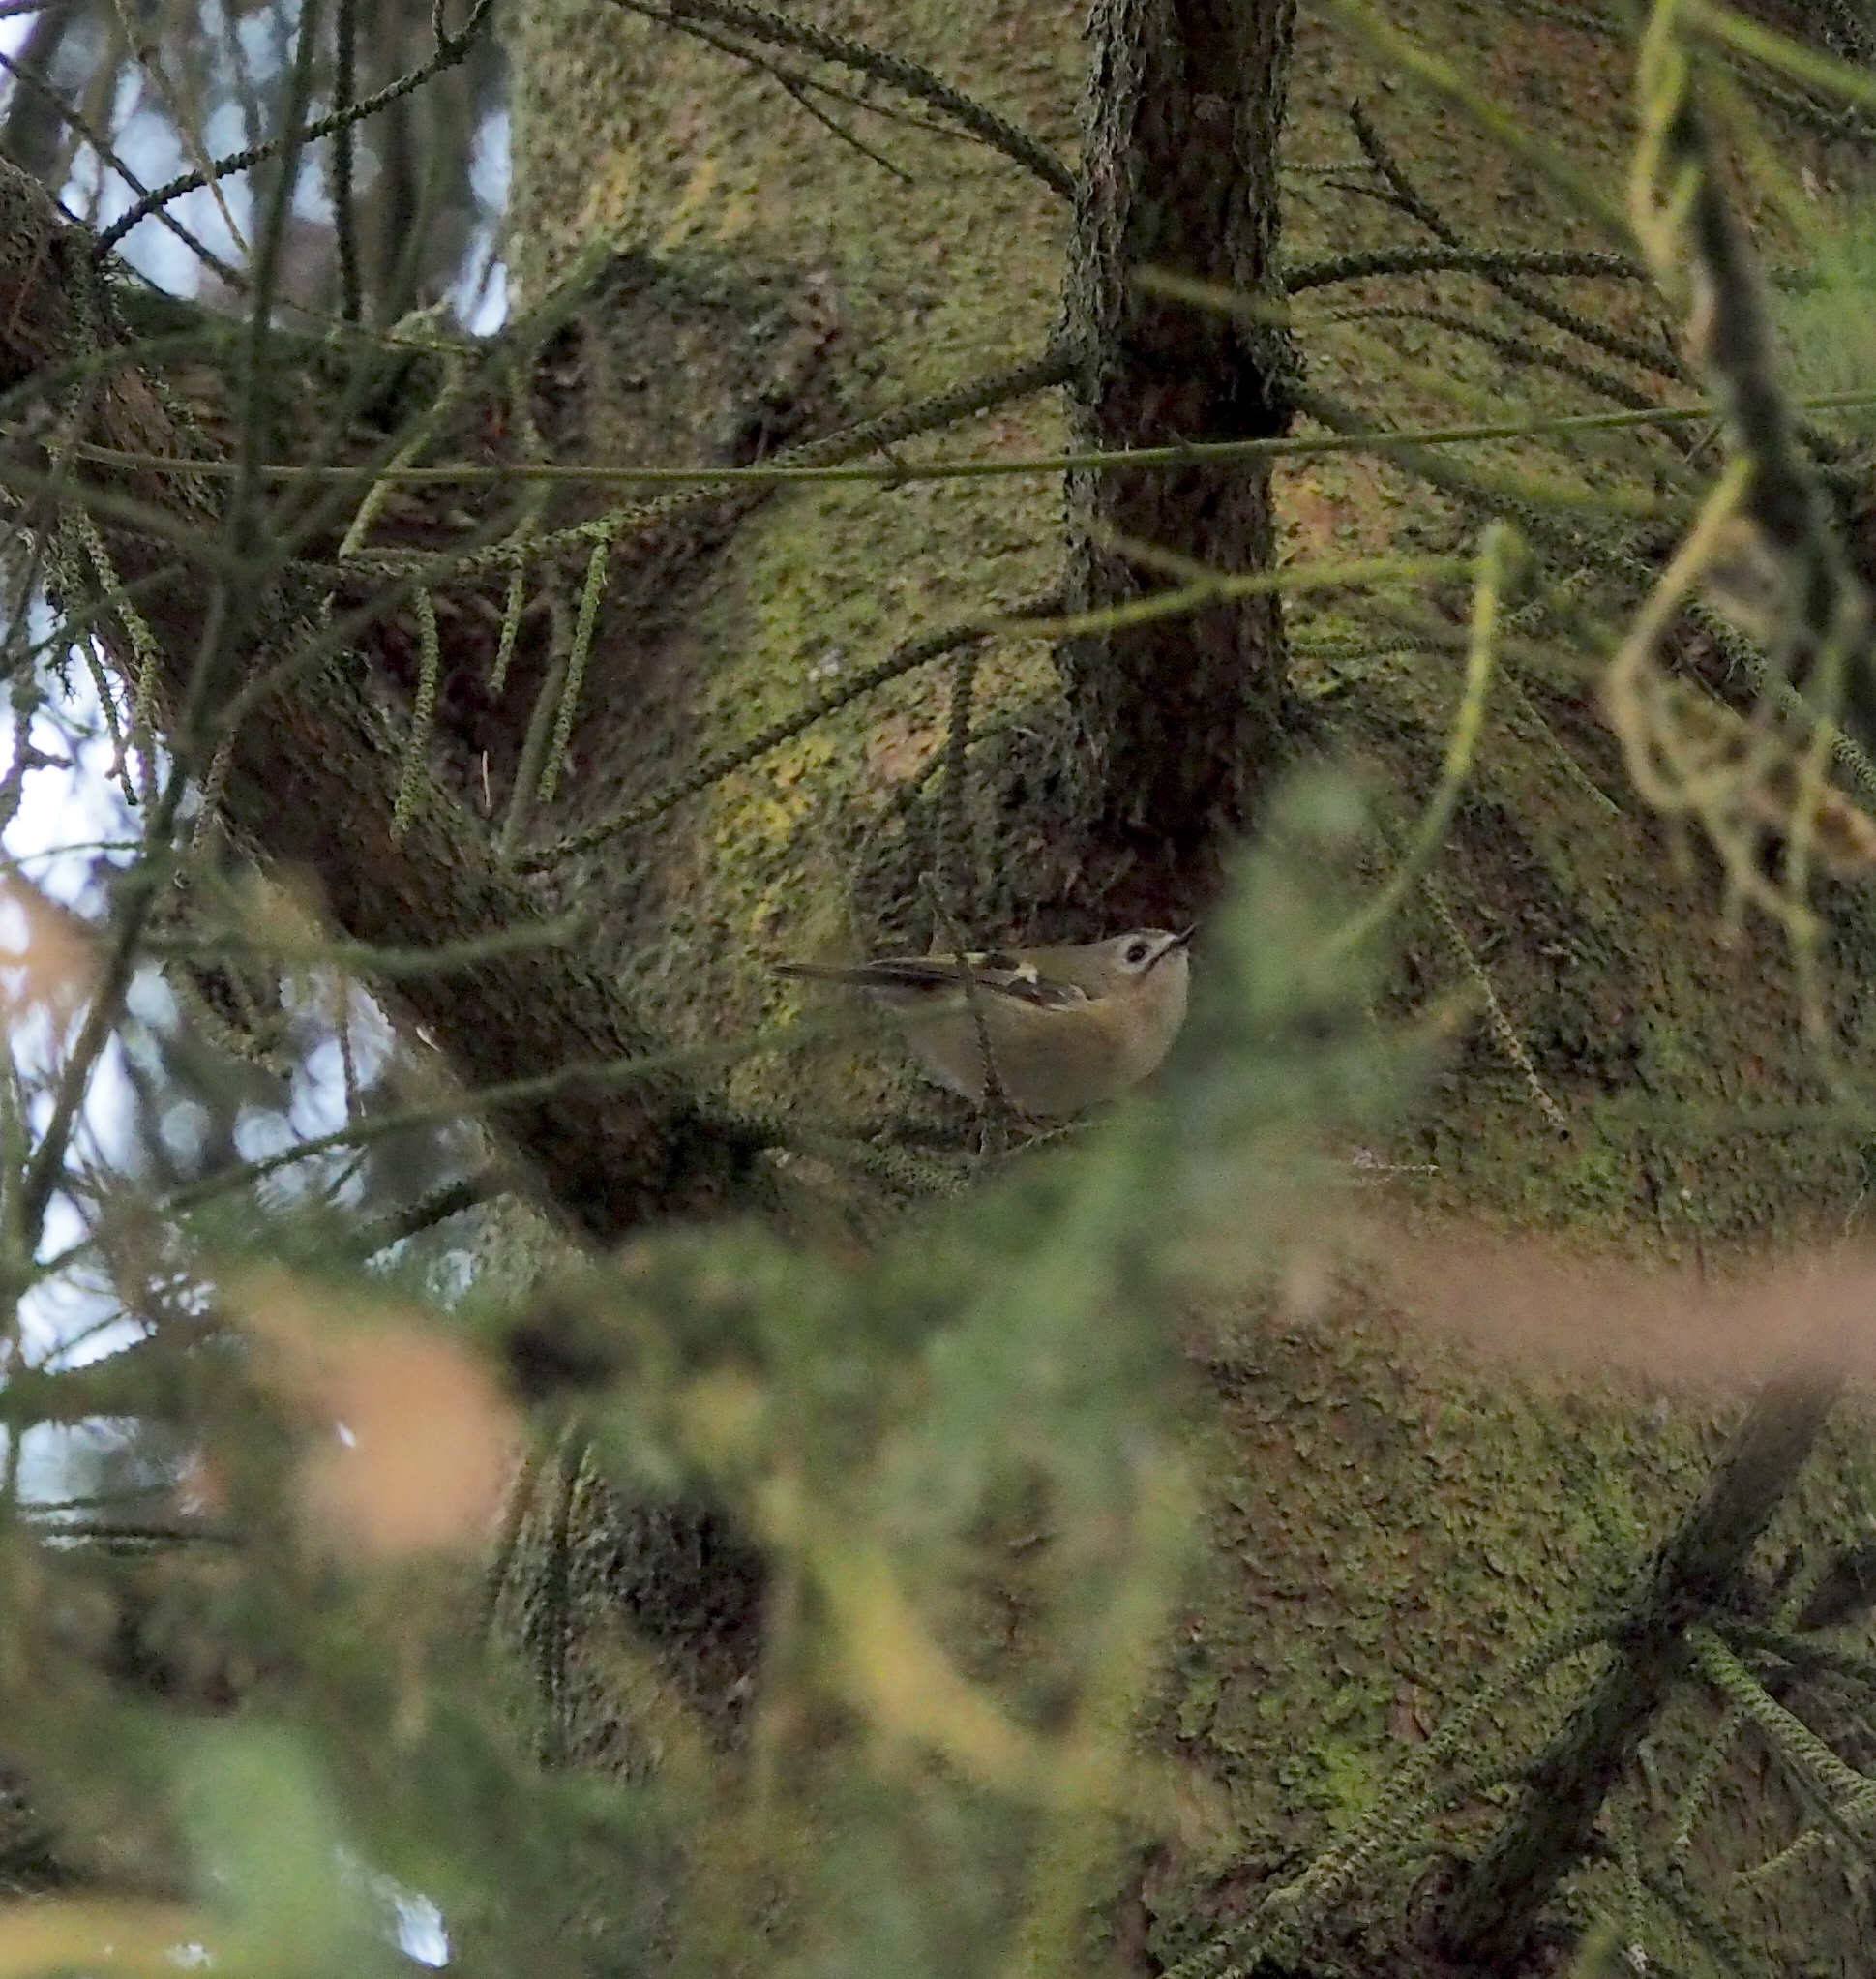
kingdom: Animalia
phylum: Chordata
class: Aves
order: Passeriformes
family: Regulidae
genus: Regulus
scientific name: Regulus regulus
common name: Goldcrest
